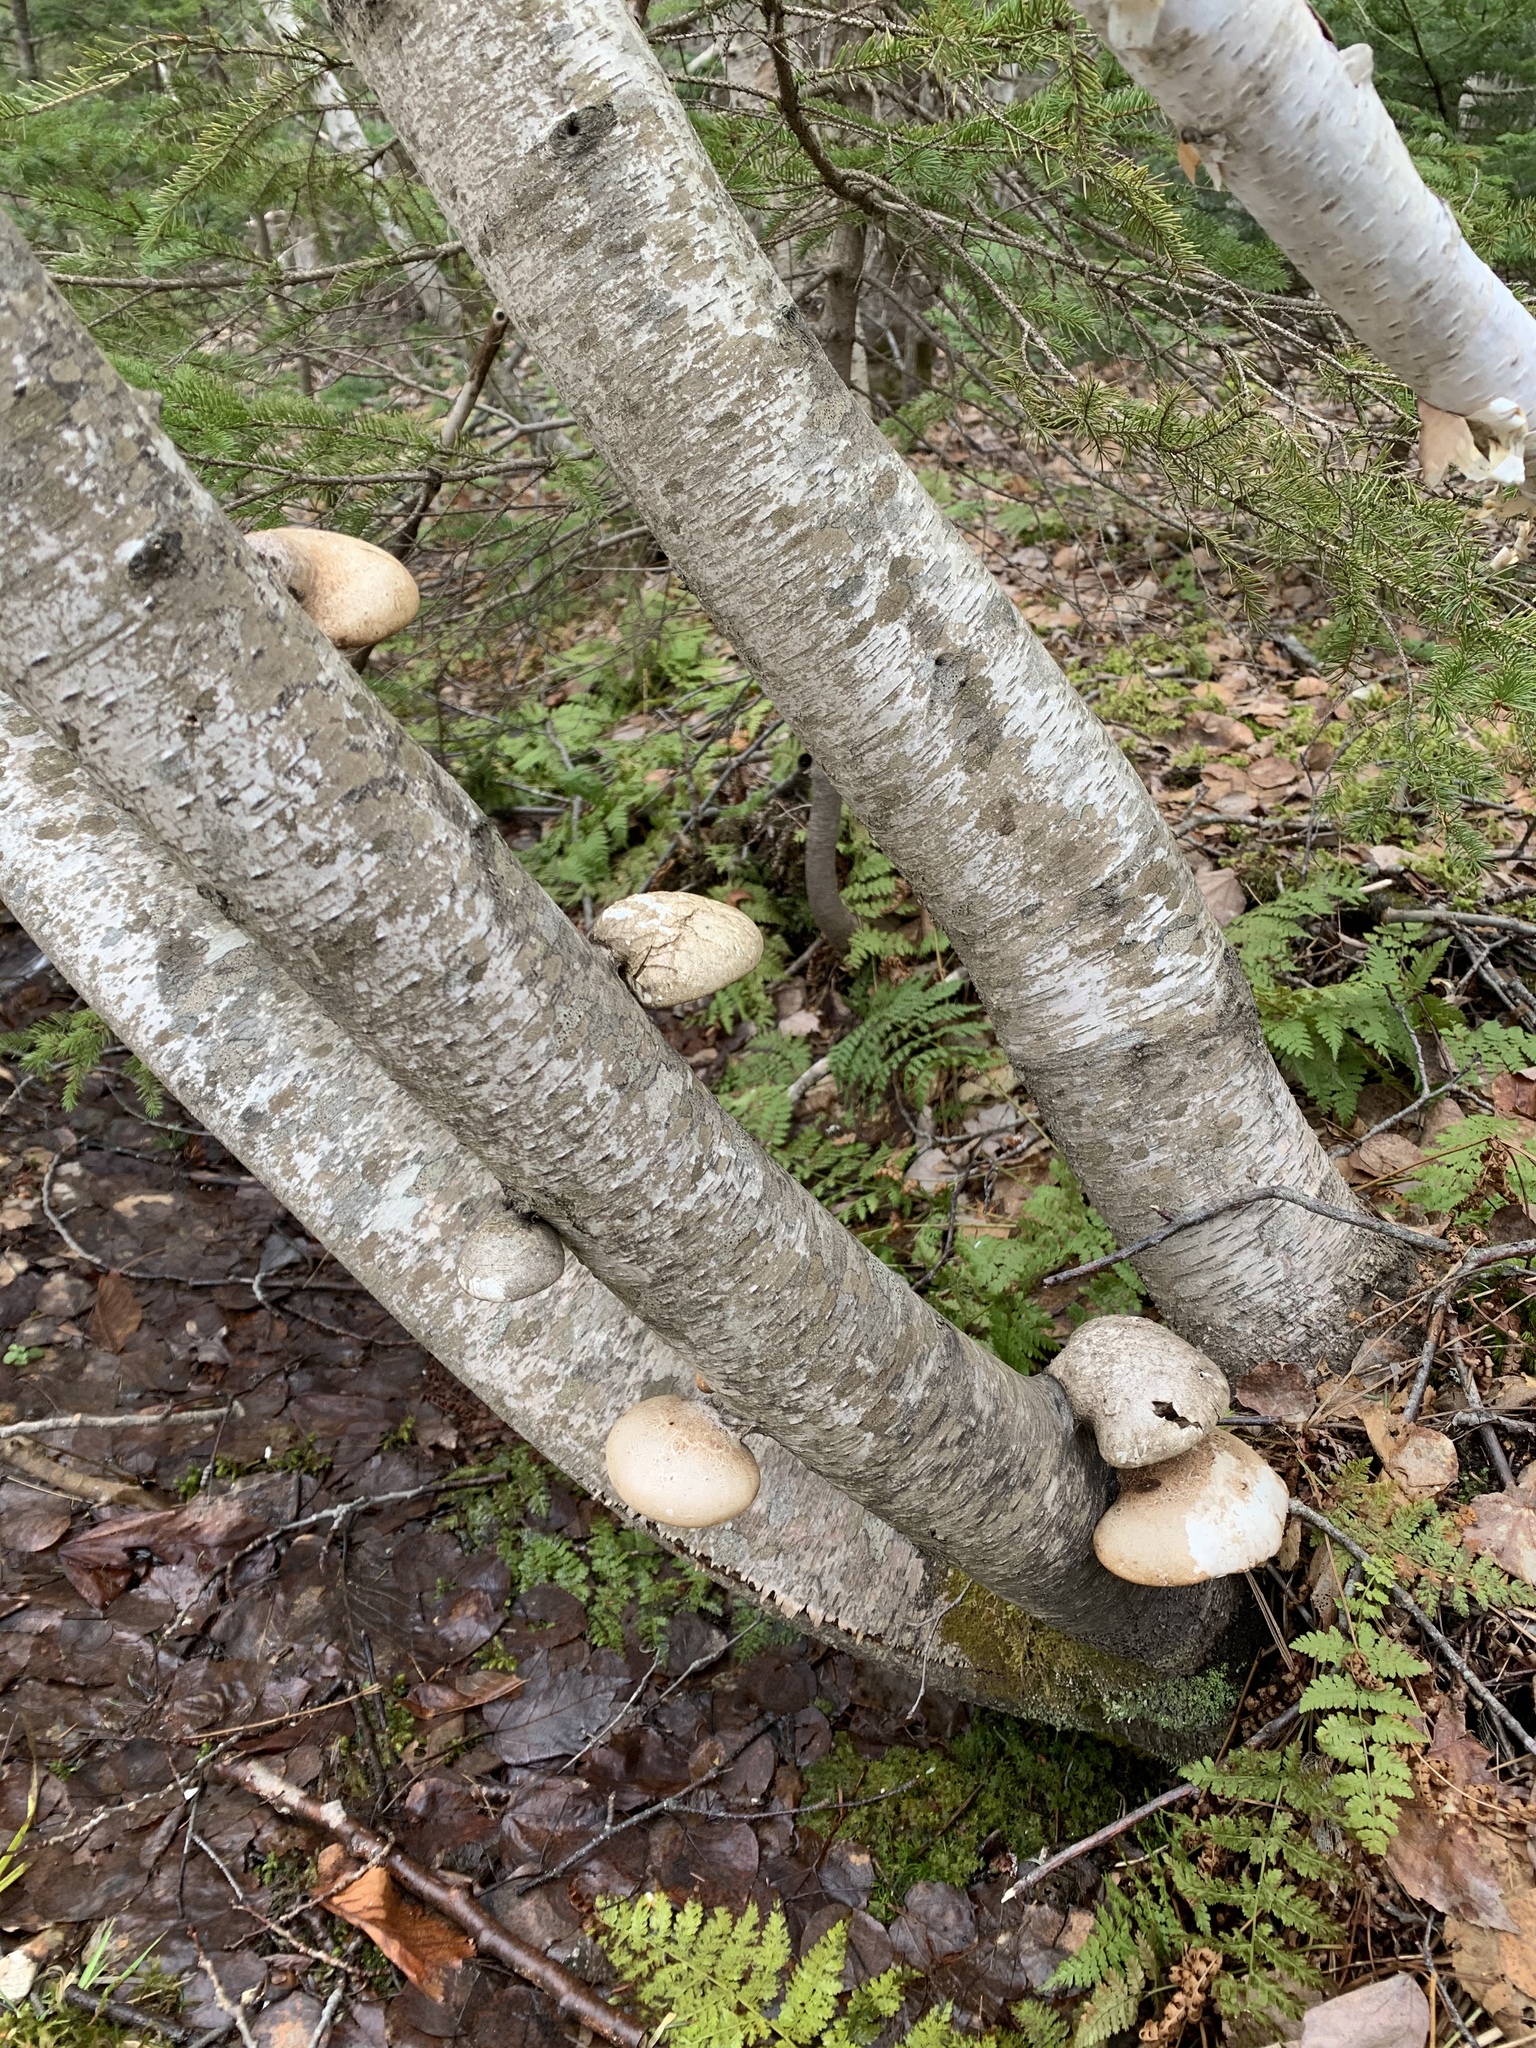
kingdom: Fungi
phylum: Basidiomycota
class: Agaricomycetes
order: Polyporales
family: Fomitopsidaceae
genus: Fomitopsis
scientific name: Fomitopsis betulina
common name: Birch polypore
